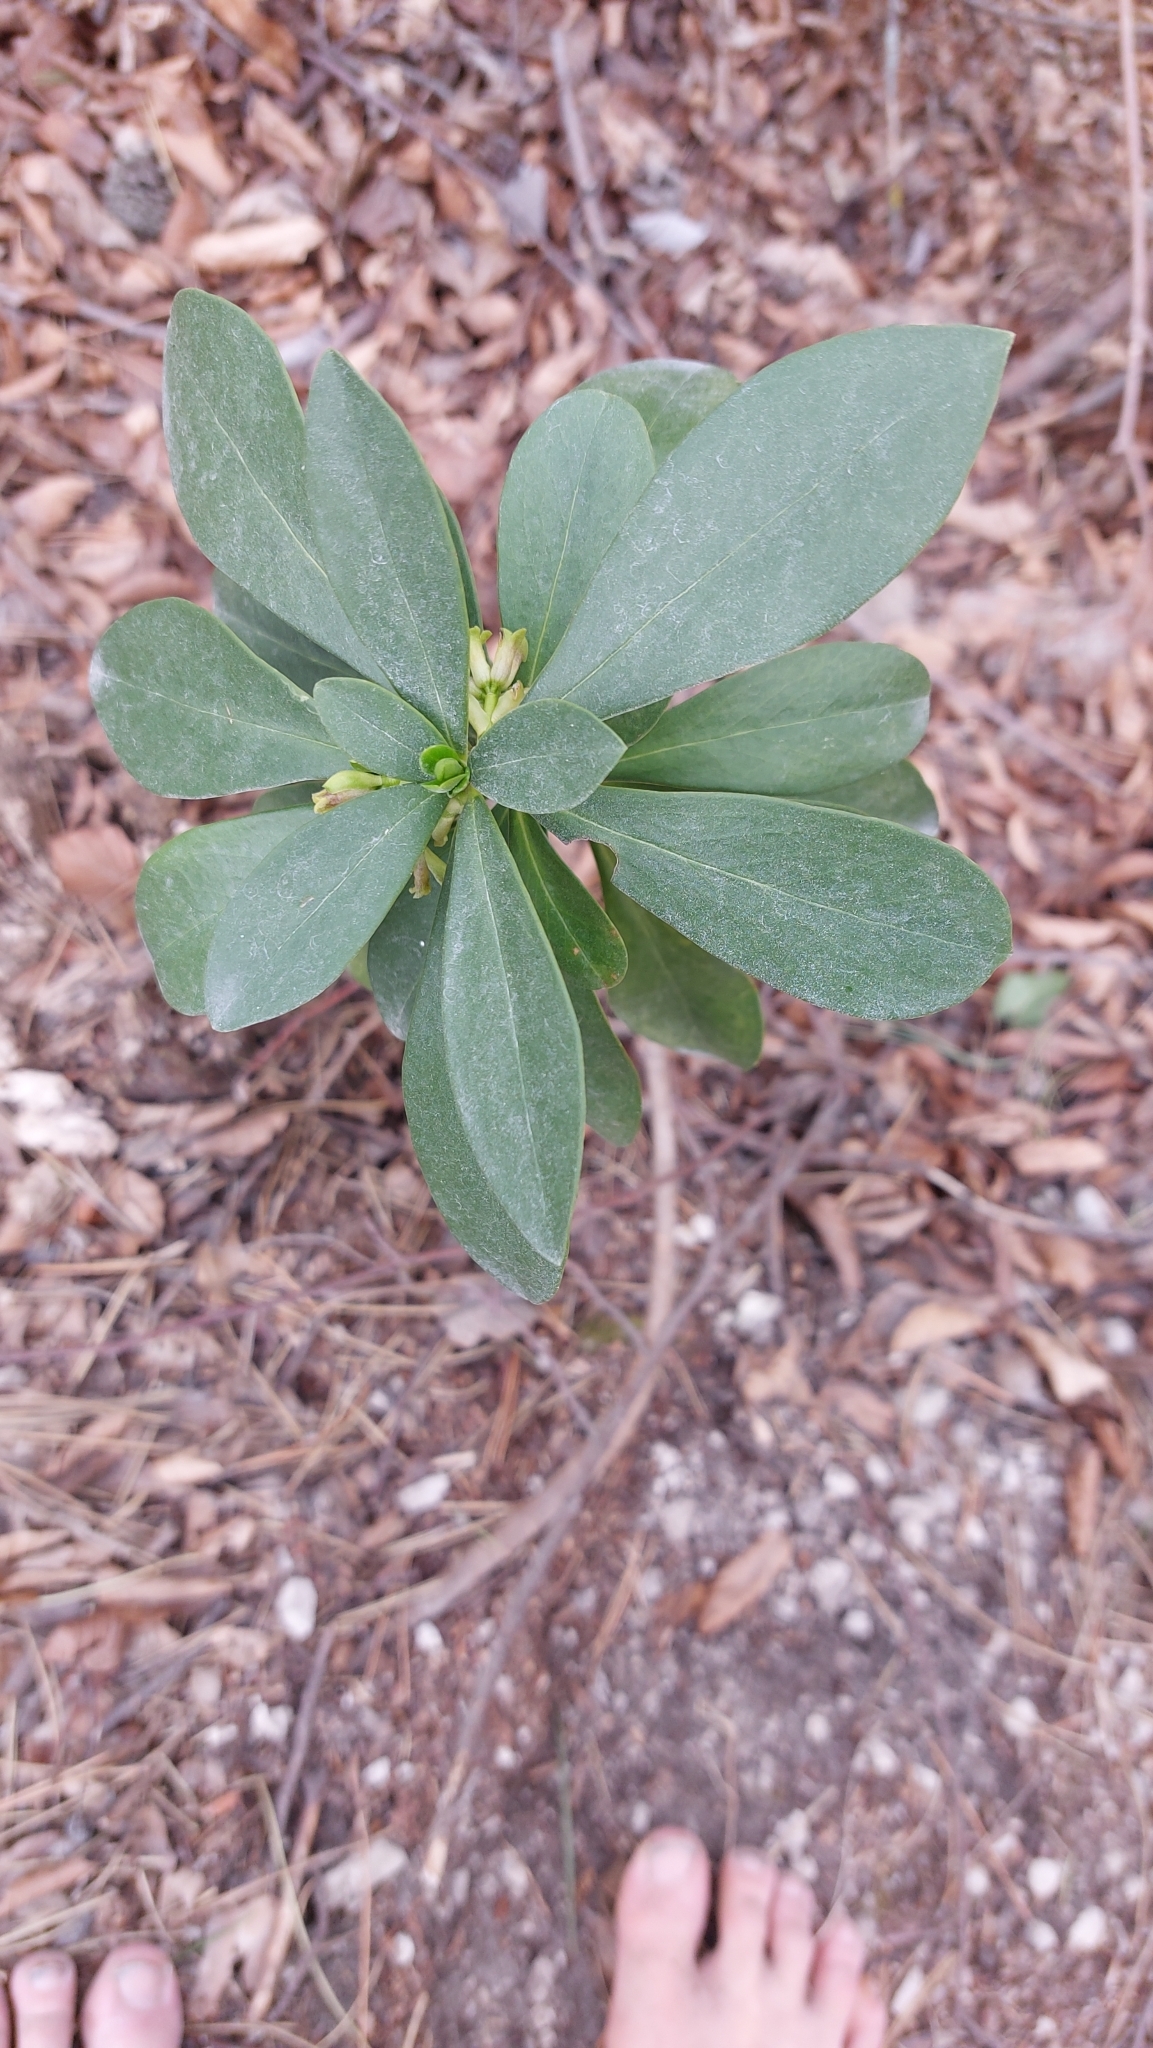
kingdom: Plantae
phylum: Tracheophyta
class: Magnoliopsida
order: Malvales
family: Thymelaeaceae
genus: Daphne
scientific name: Daphne laureola
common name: Spurge-laurel
